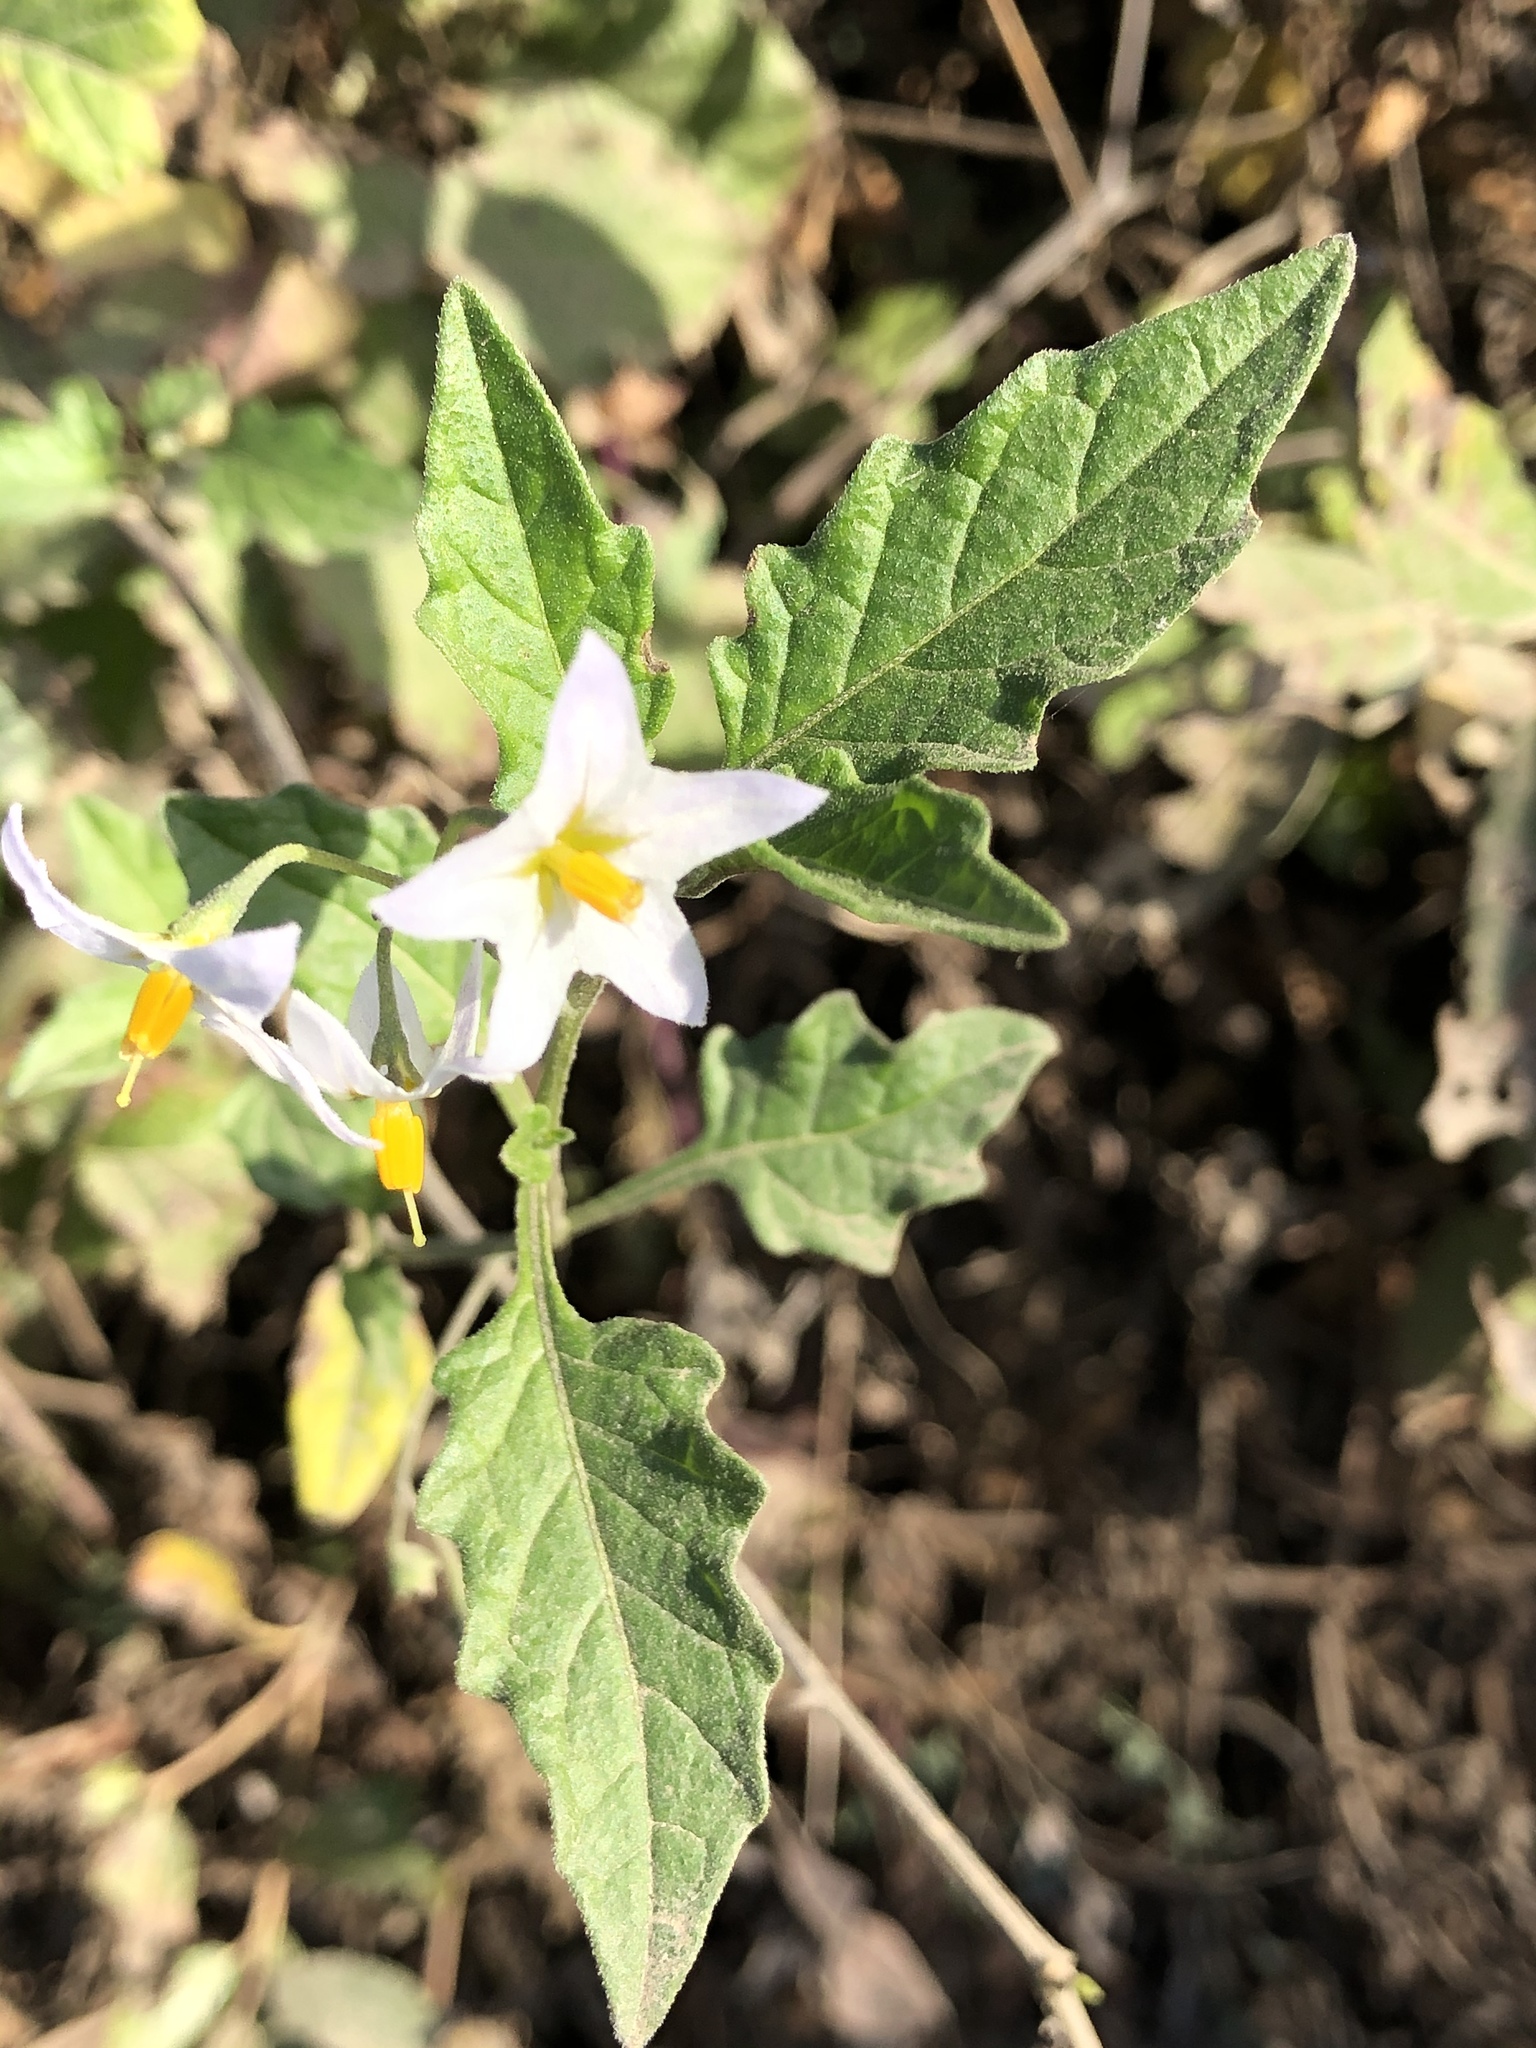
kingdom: Plantae
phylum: Tracheophyta
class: Magnoliopsida
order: Solanales
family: Solanaceae
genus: Solanum
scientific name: Solanum furcatum
